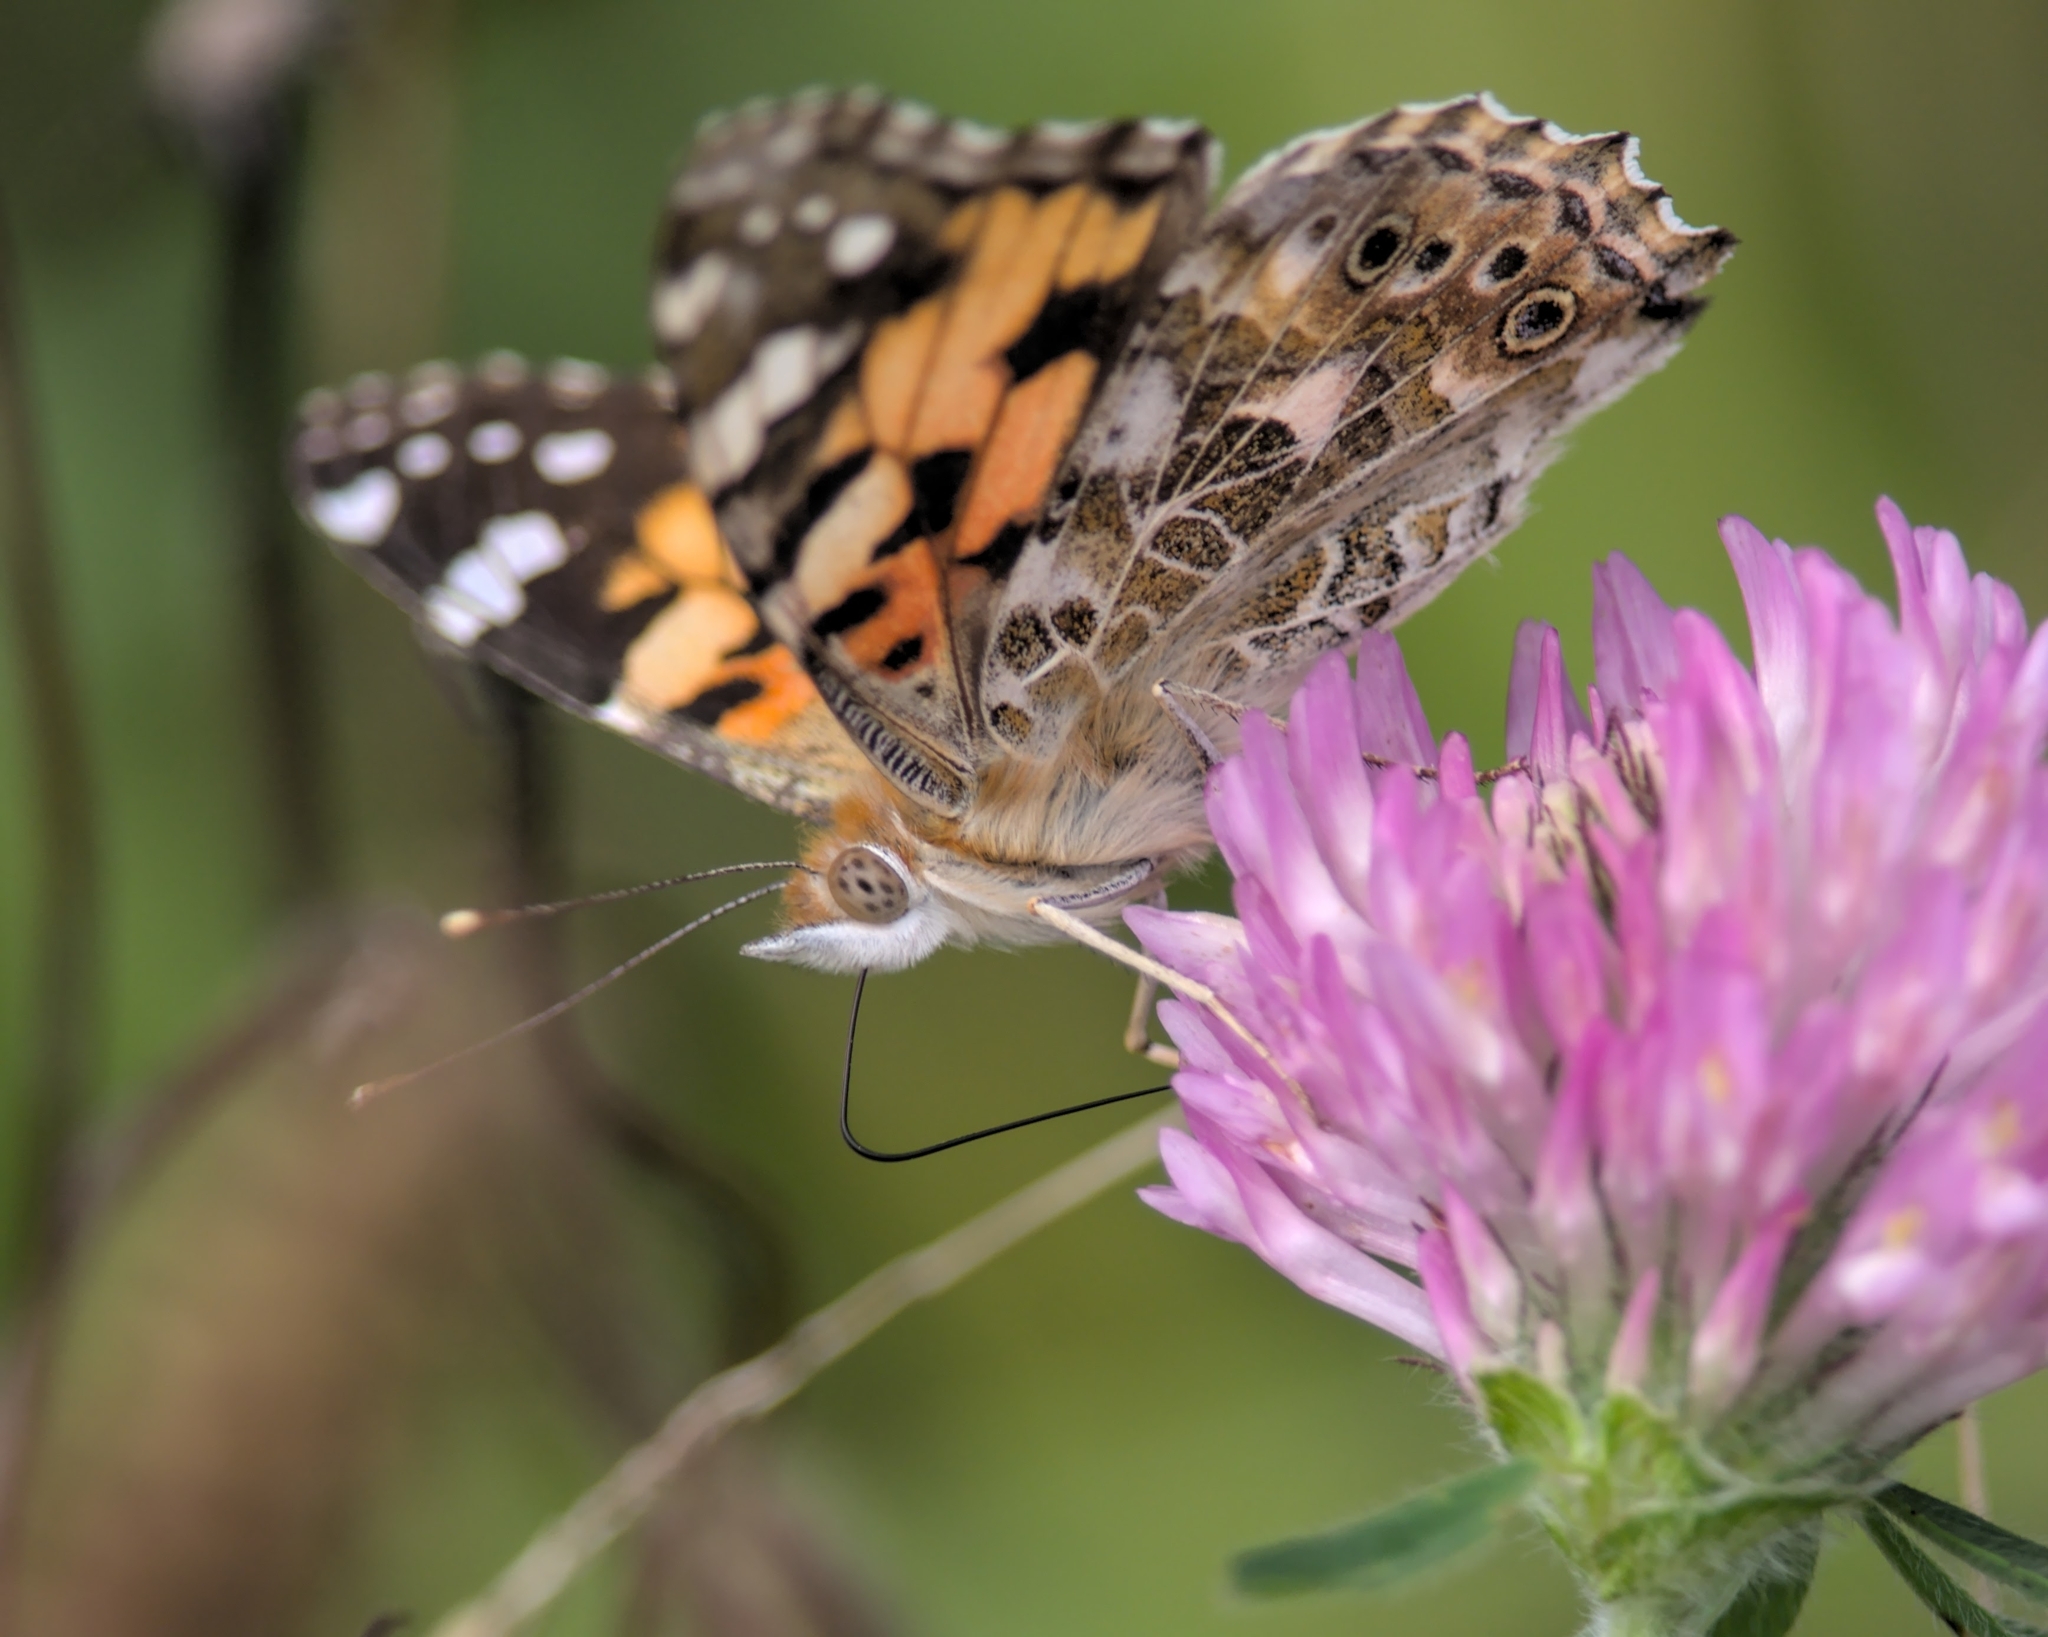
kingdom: Animalia
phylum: Arthropoda
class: Insecta
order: Lepidoptera
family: Nymphalidae
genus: Vanessa
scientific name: Vanessa cardui
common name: Painted lady
